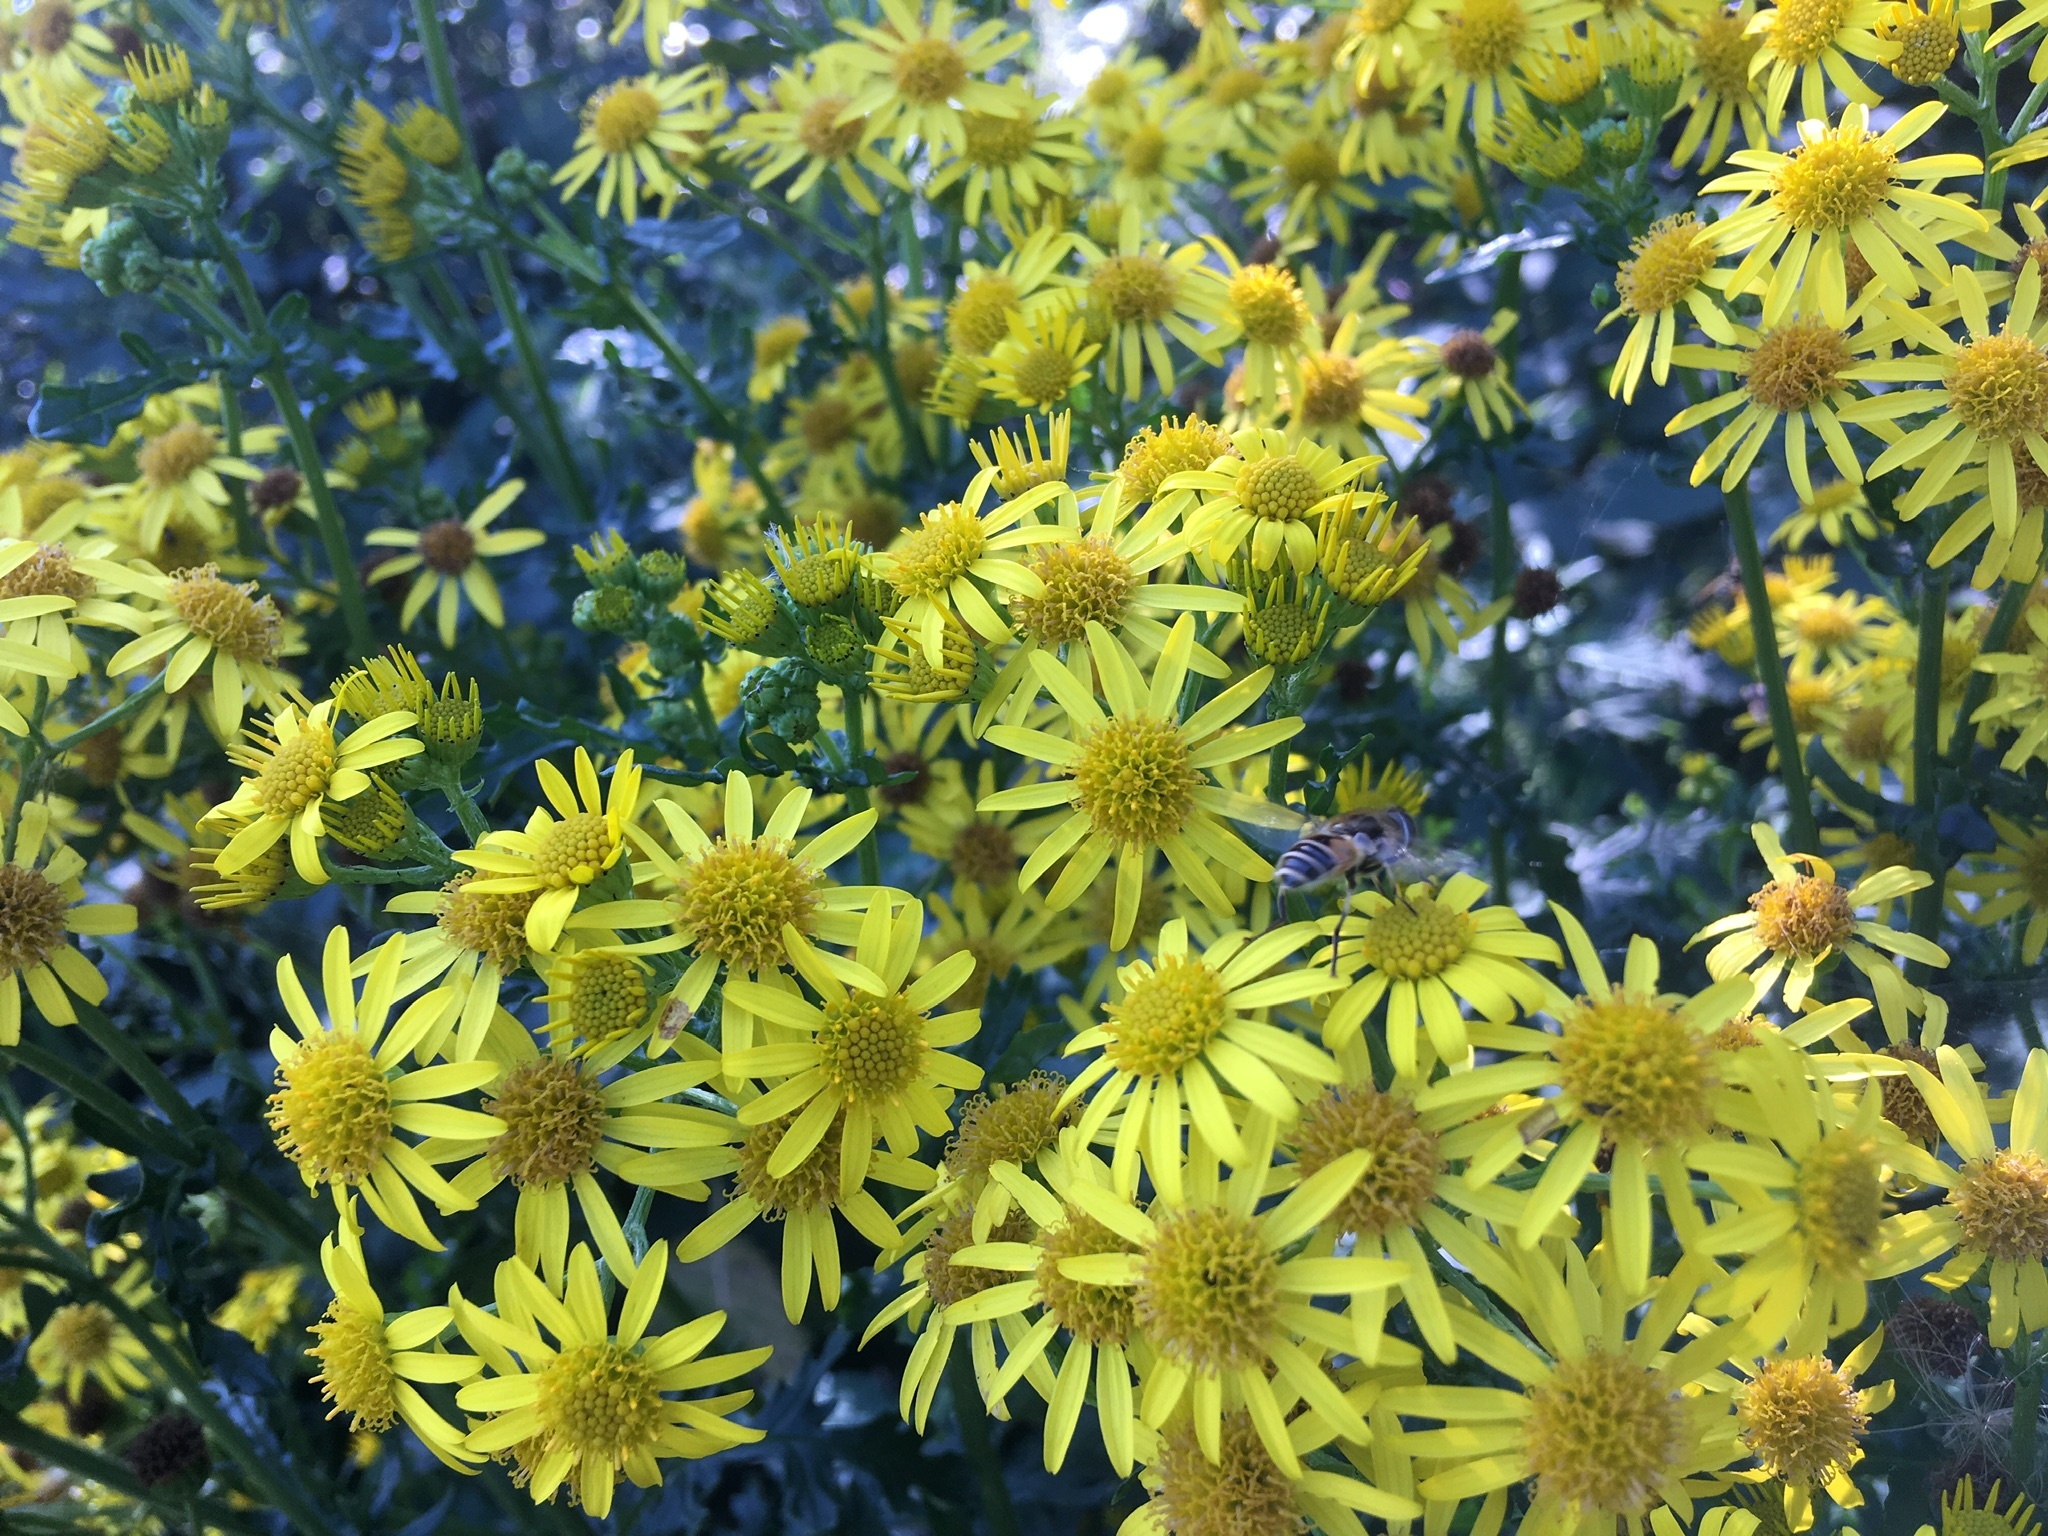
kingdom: Animalia
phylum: Arthropoda
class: Insecta
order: Diptera
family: Syrphidae
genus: Eristalis
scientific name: Eristalis arbustorum
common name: Hover fly
